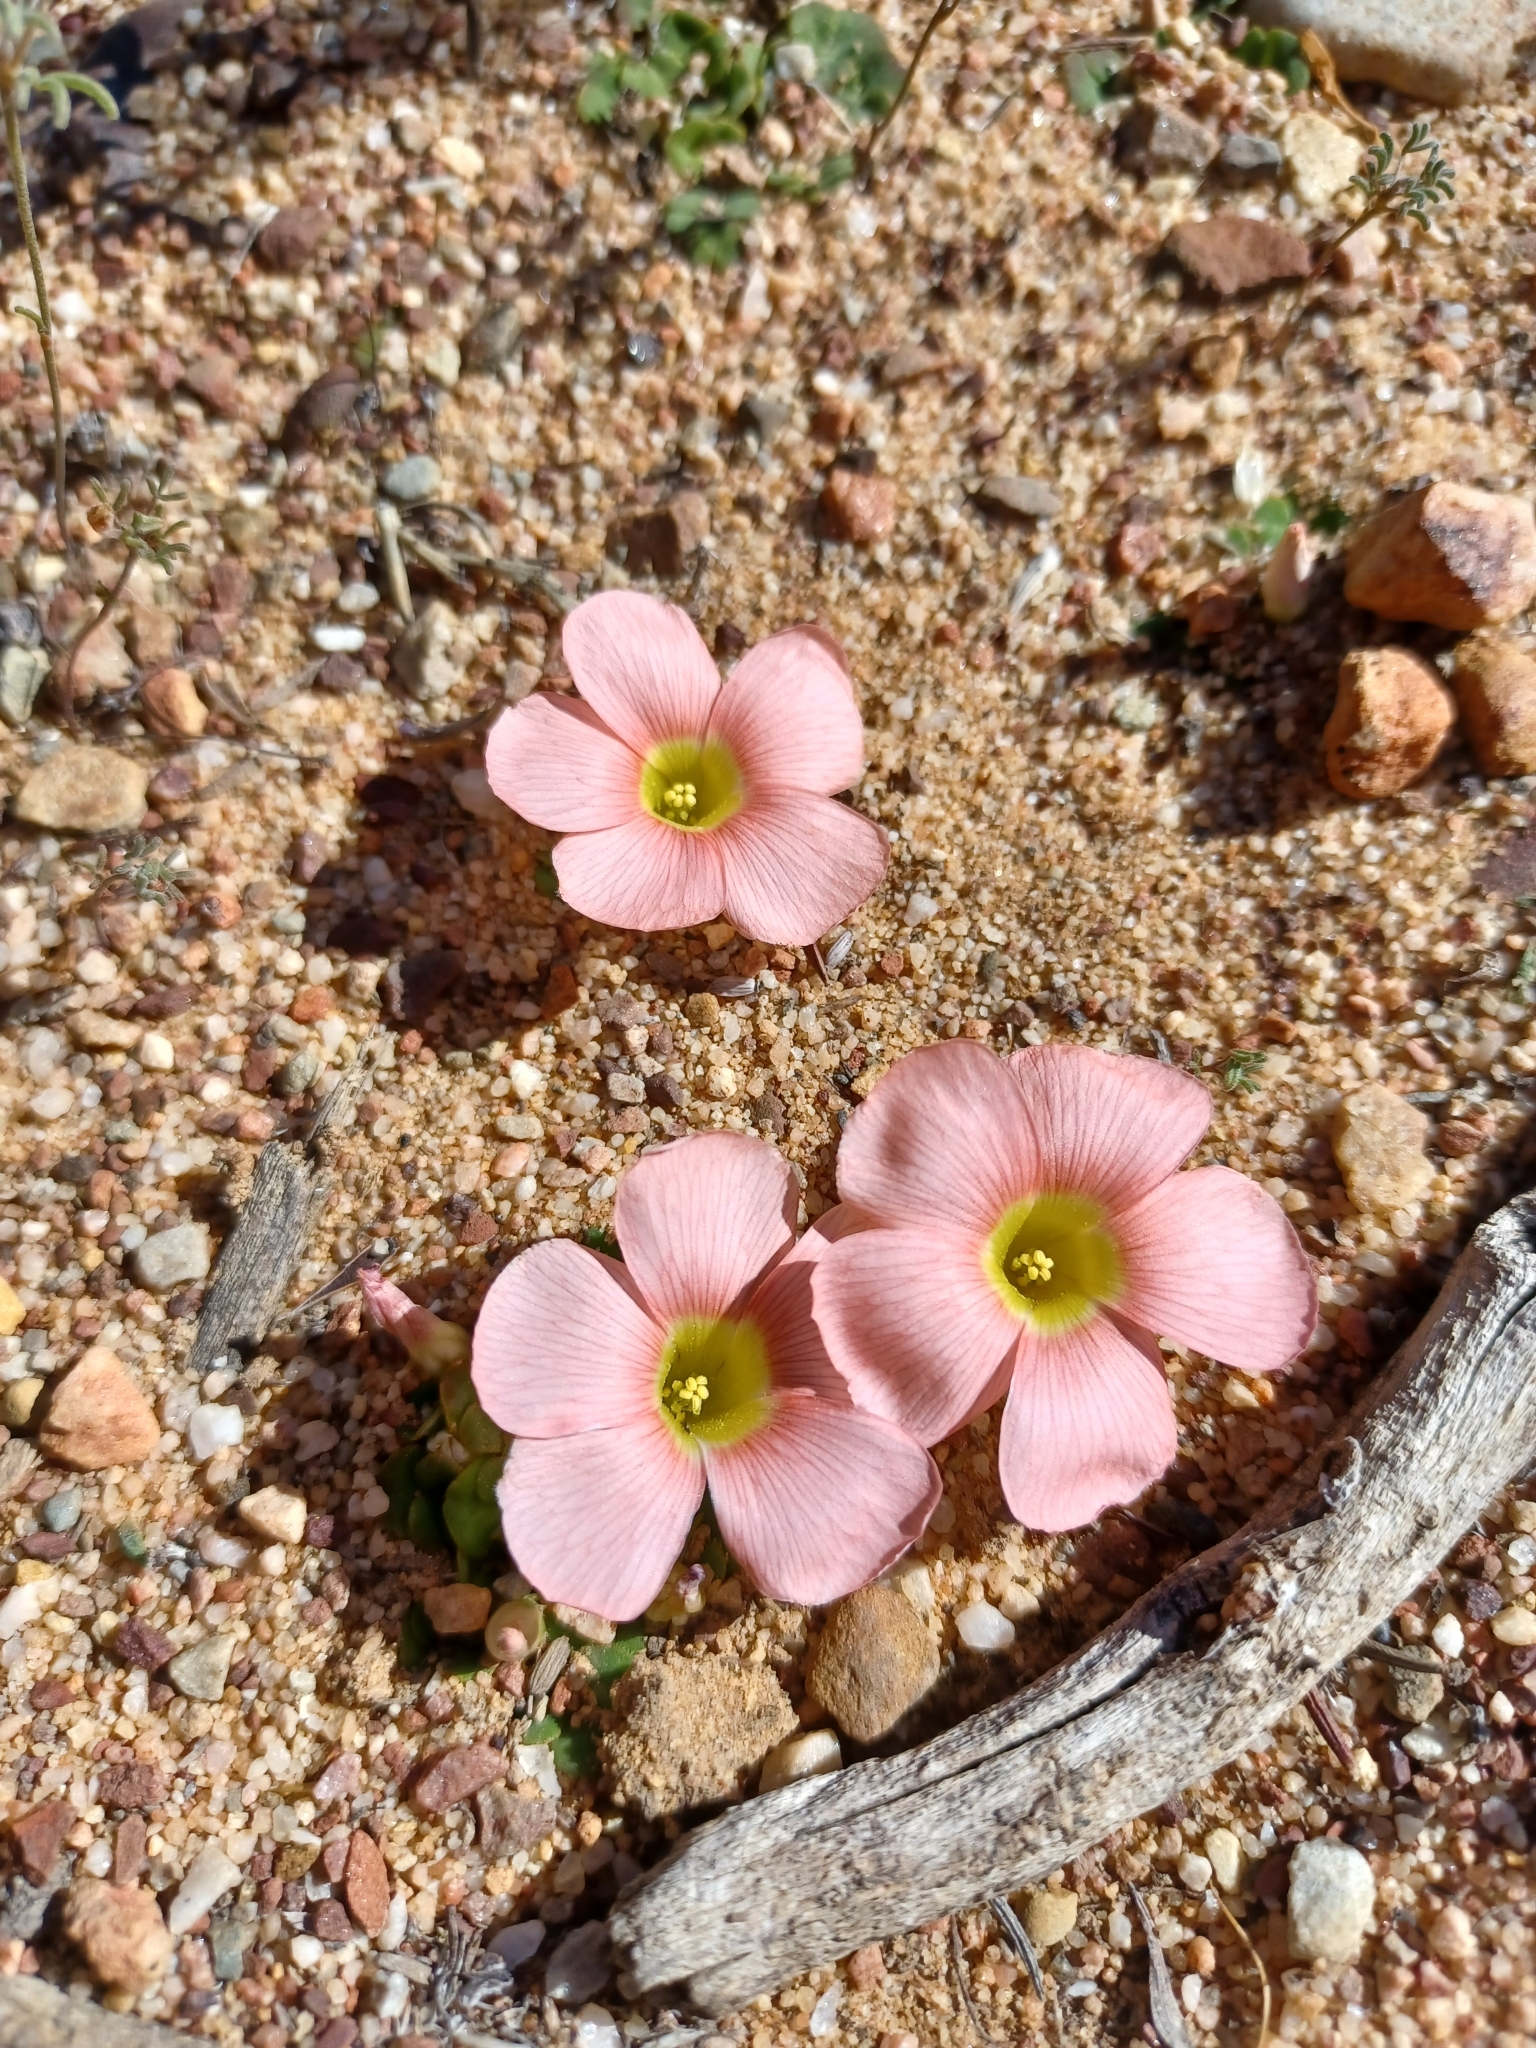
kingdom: Plantae
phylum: Tracheophyta
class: Magnoliopsida
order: Oxalidales
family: Oxalidaceae
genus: Oxalis
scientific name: Oxalis pulchella
